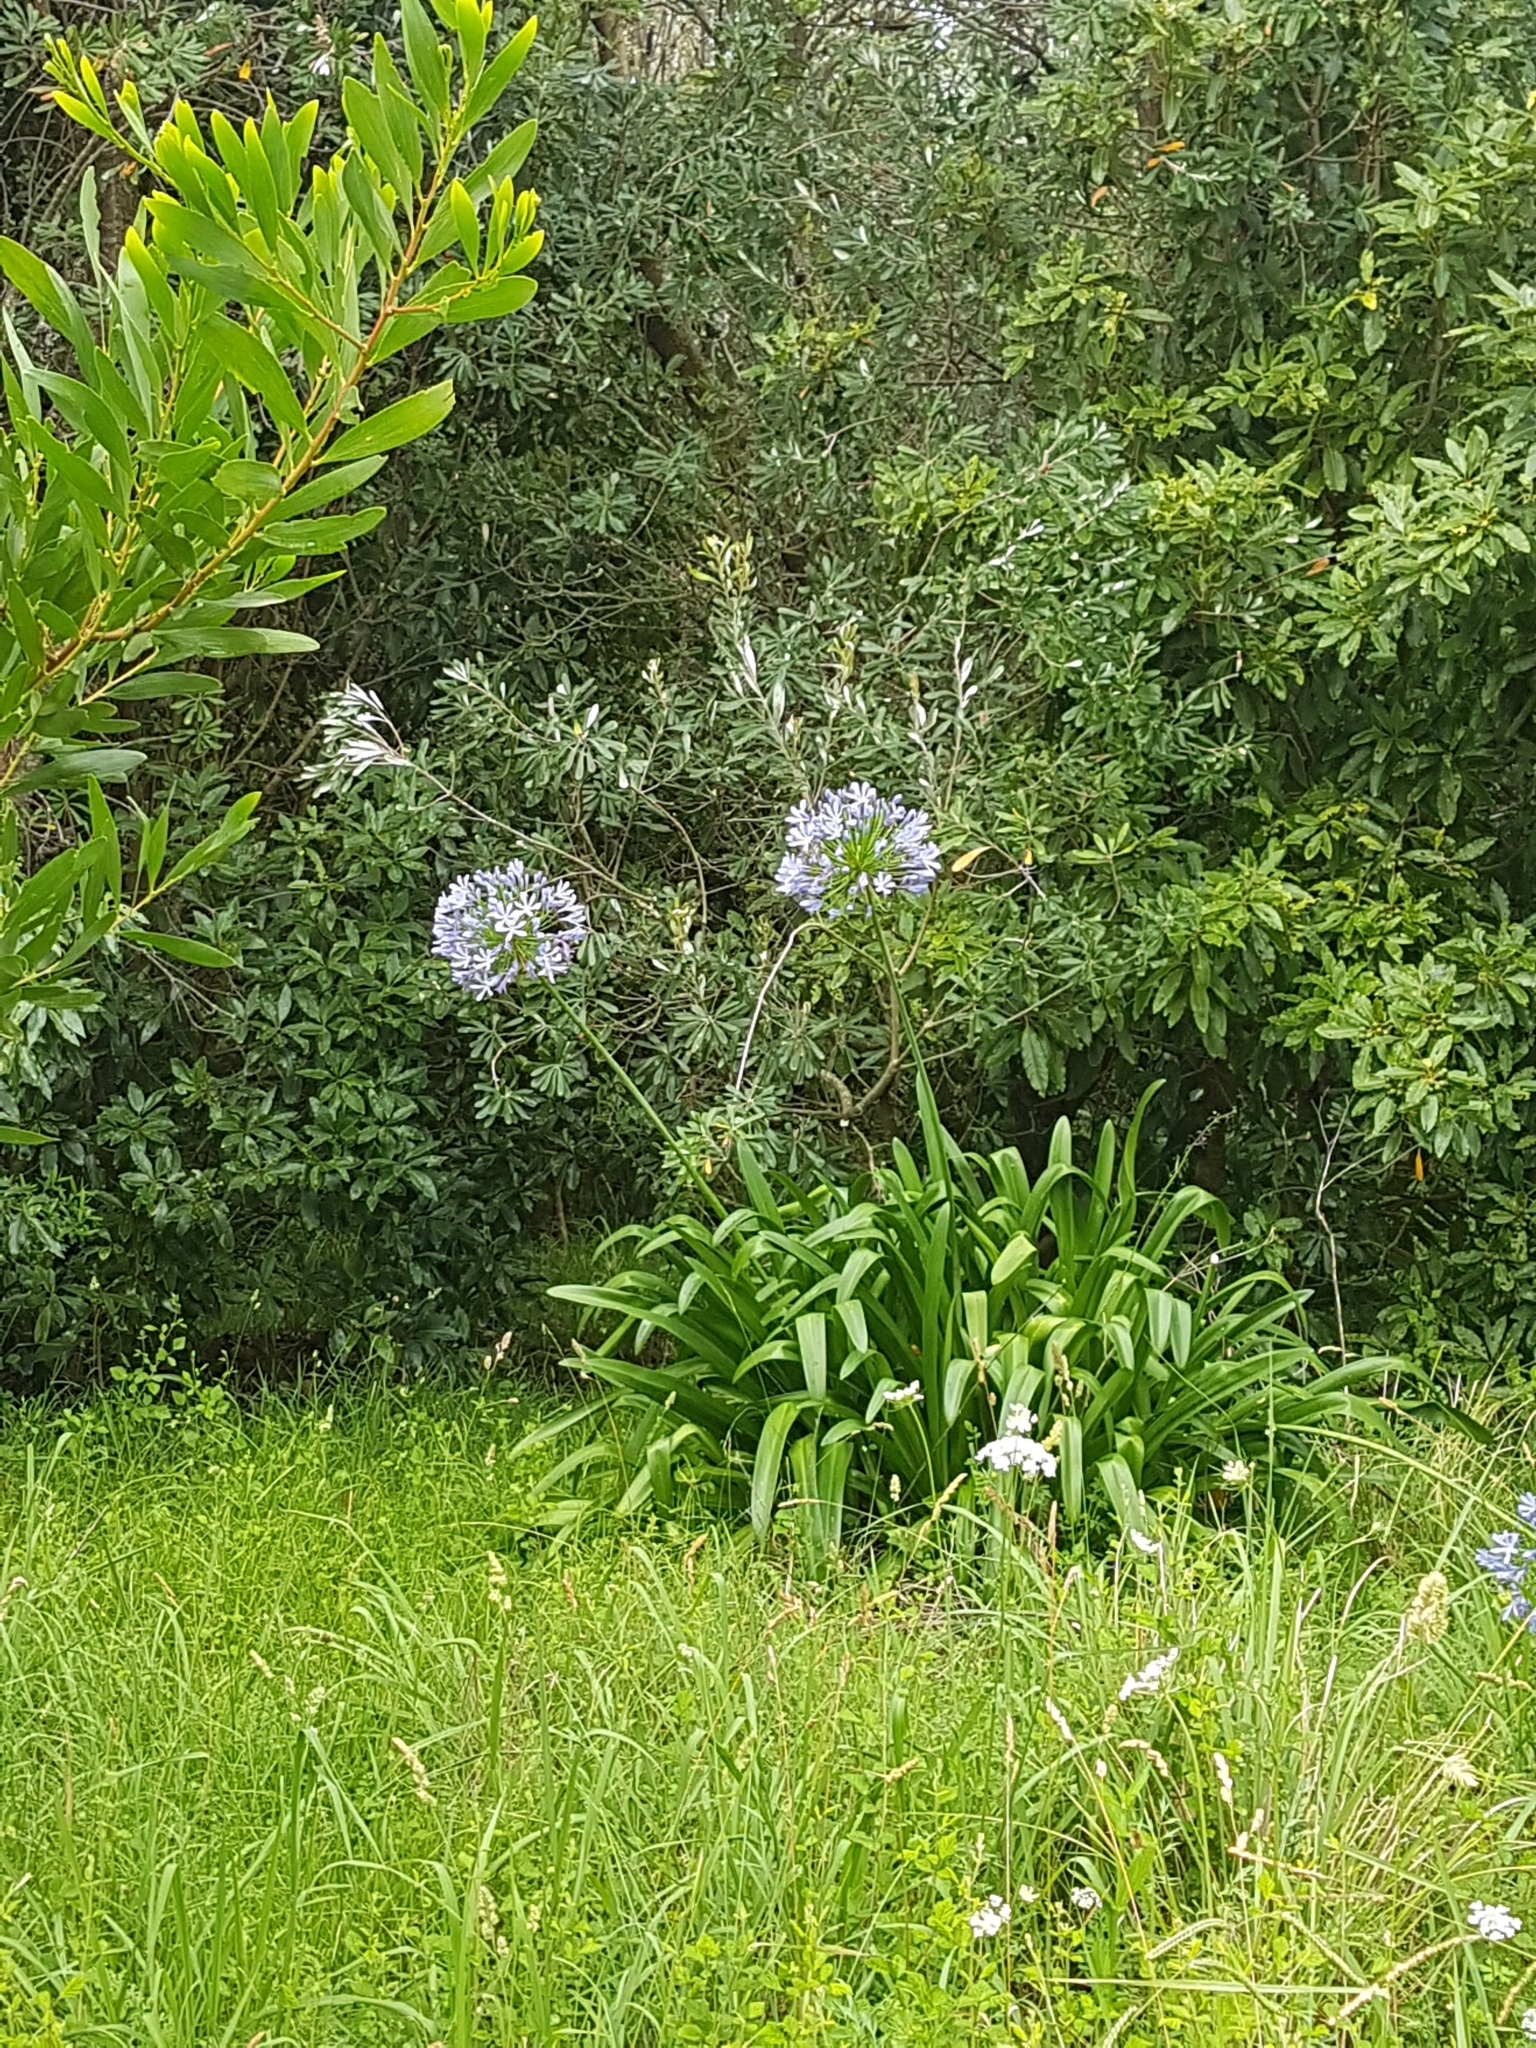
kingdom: Plantae
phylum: Tracheophyta
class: Liliopsida
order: Asparagales
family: Amaryllidaceae
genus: Agapanthus
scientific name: Agapanthus praecox
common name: African-lily
